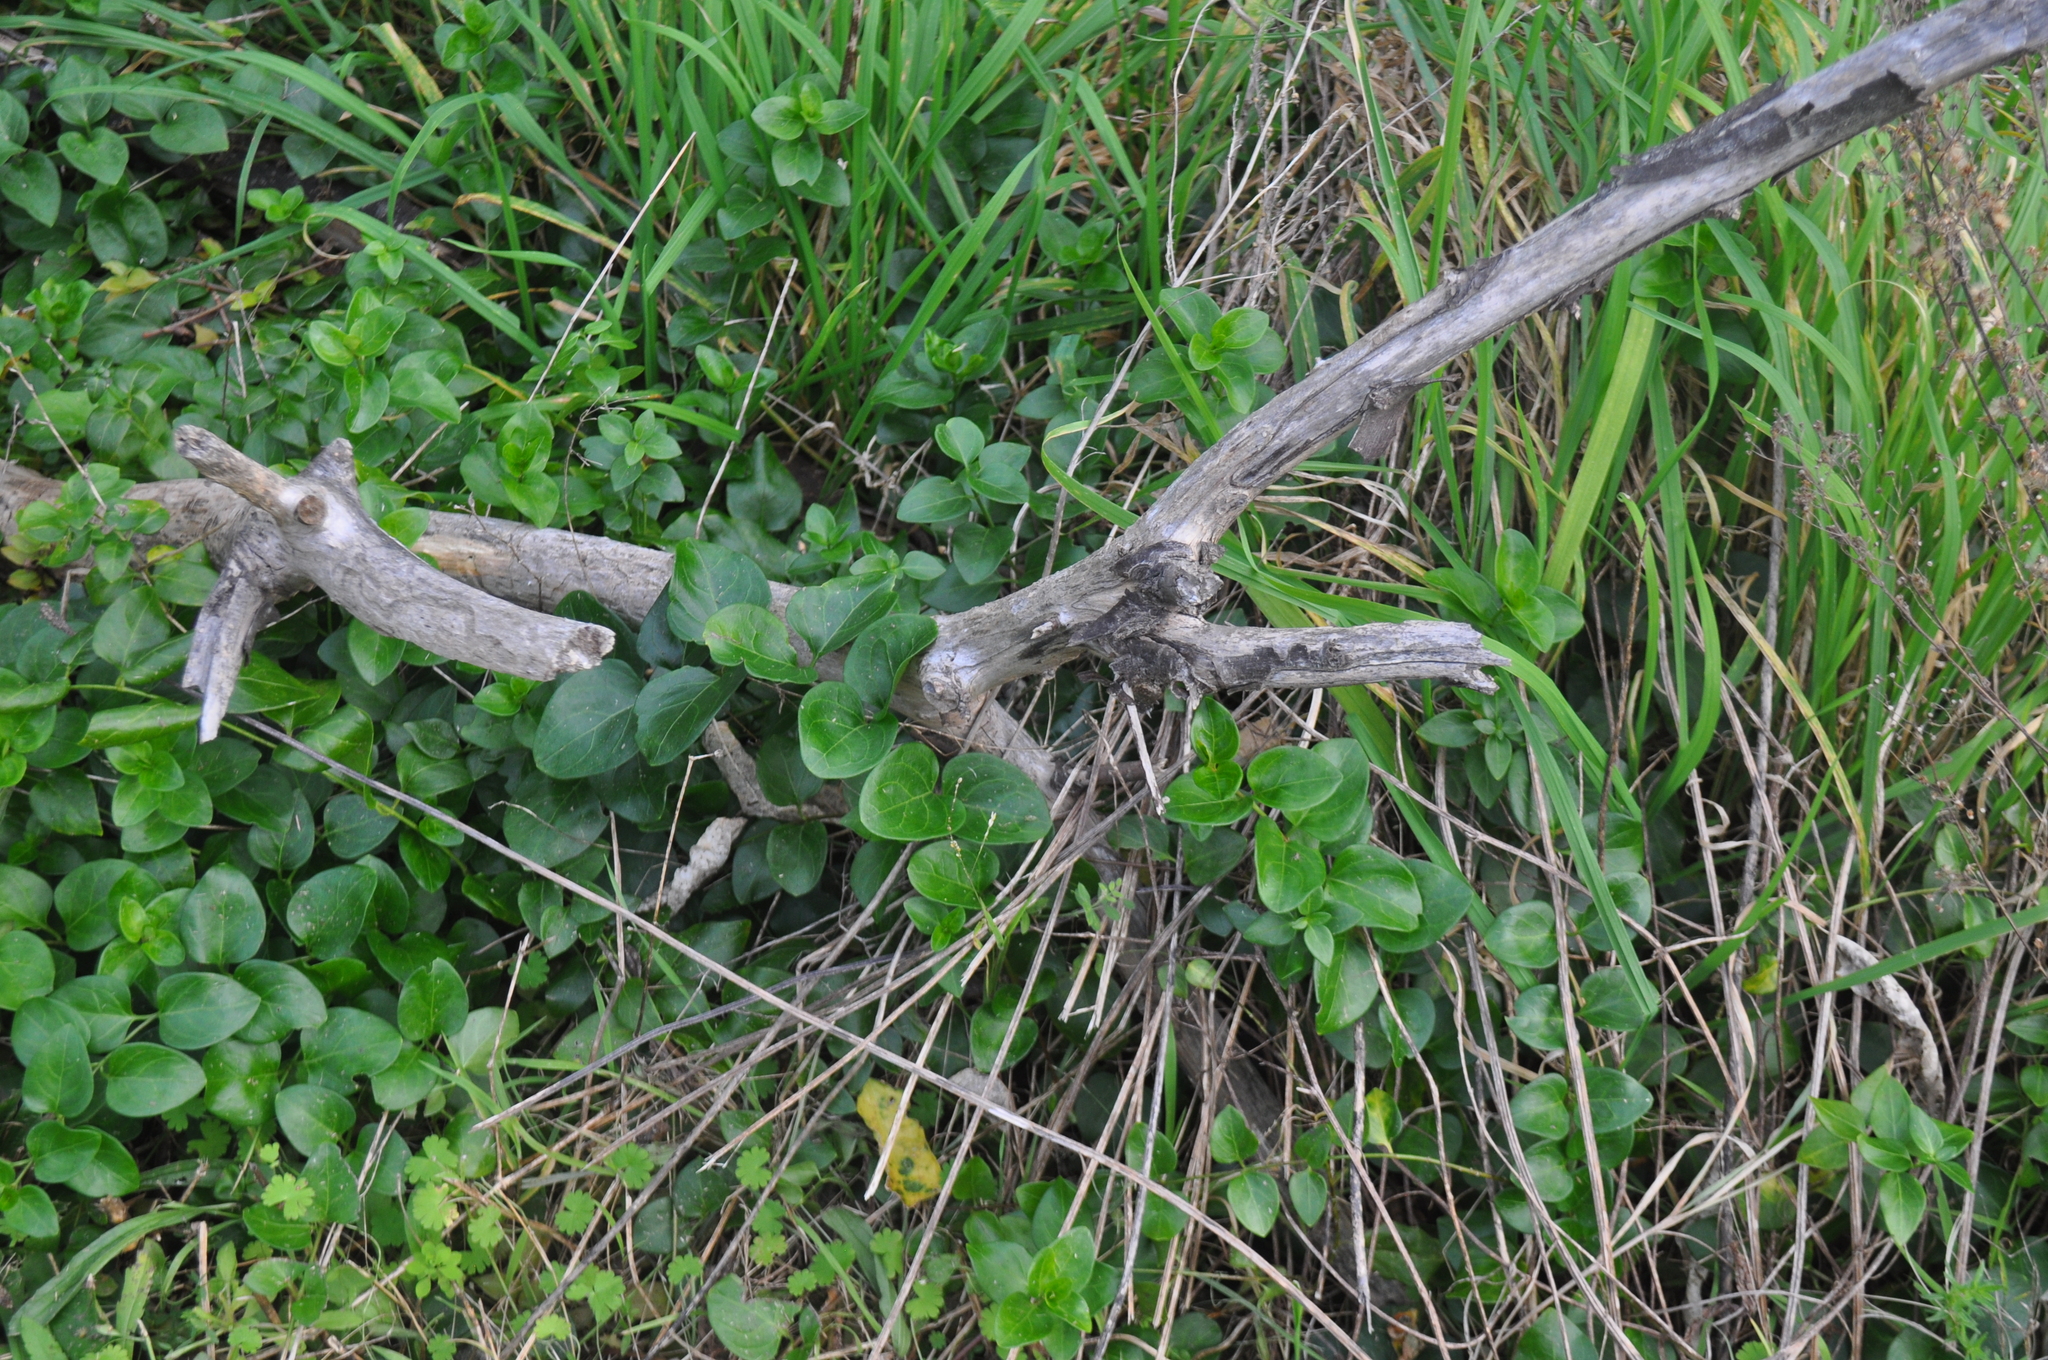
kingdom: Plantae
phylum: Tracheophyta
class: Magnoliopsida
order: Gentianales
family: Apocynaceae
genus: Vinca
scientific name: Vinca major
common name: Greater periwinkle
